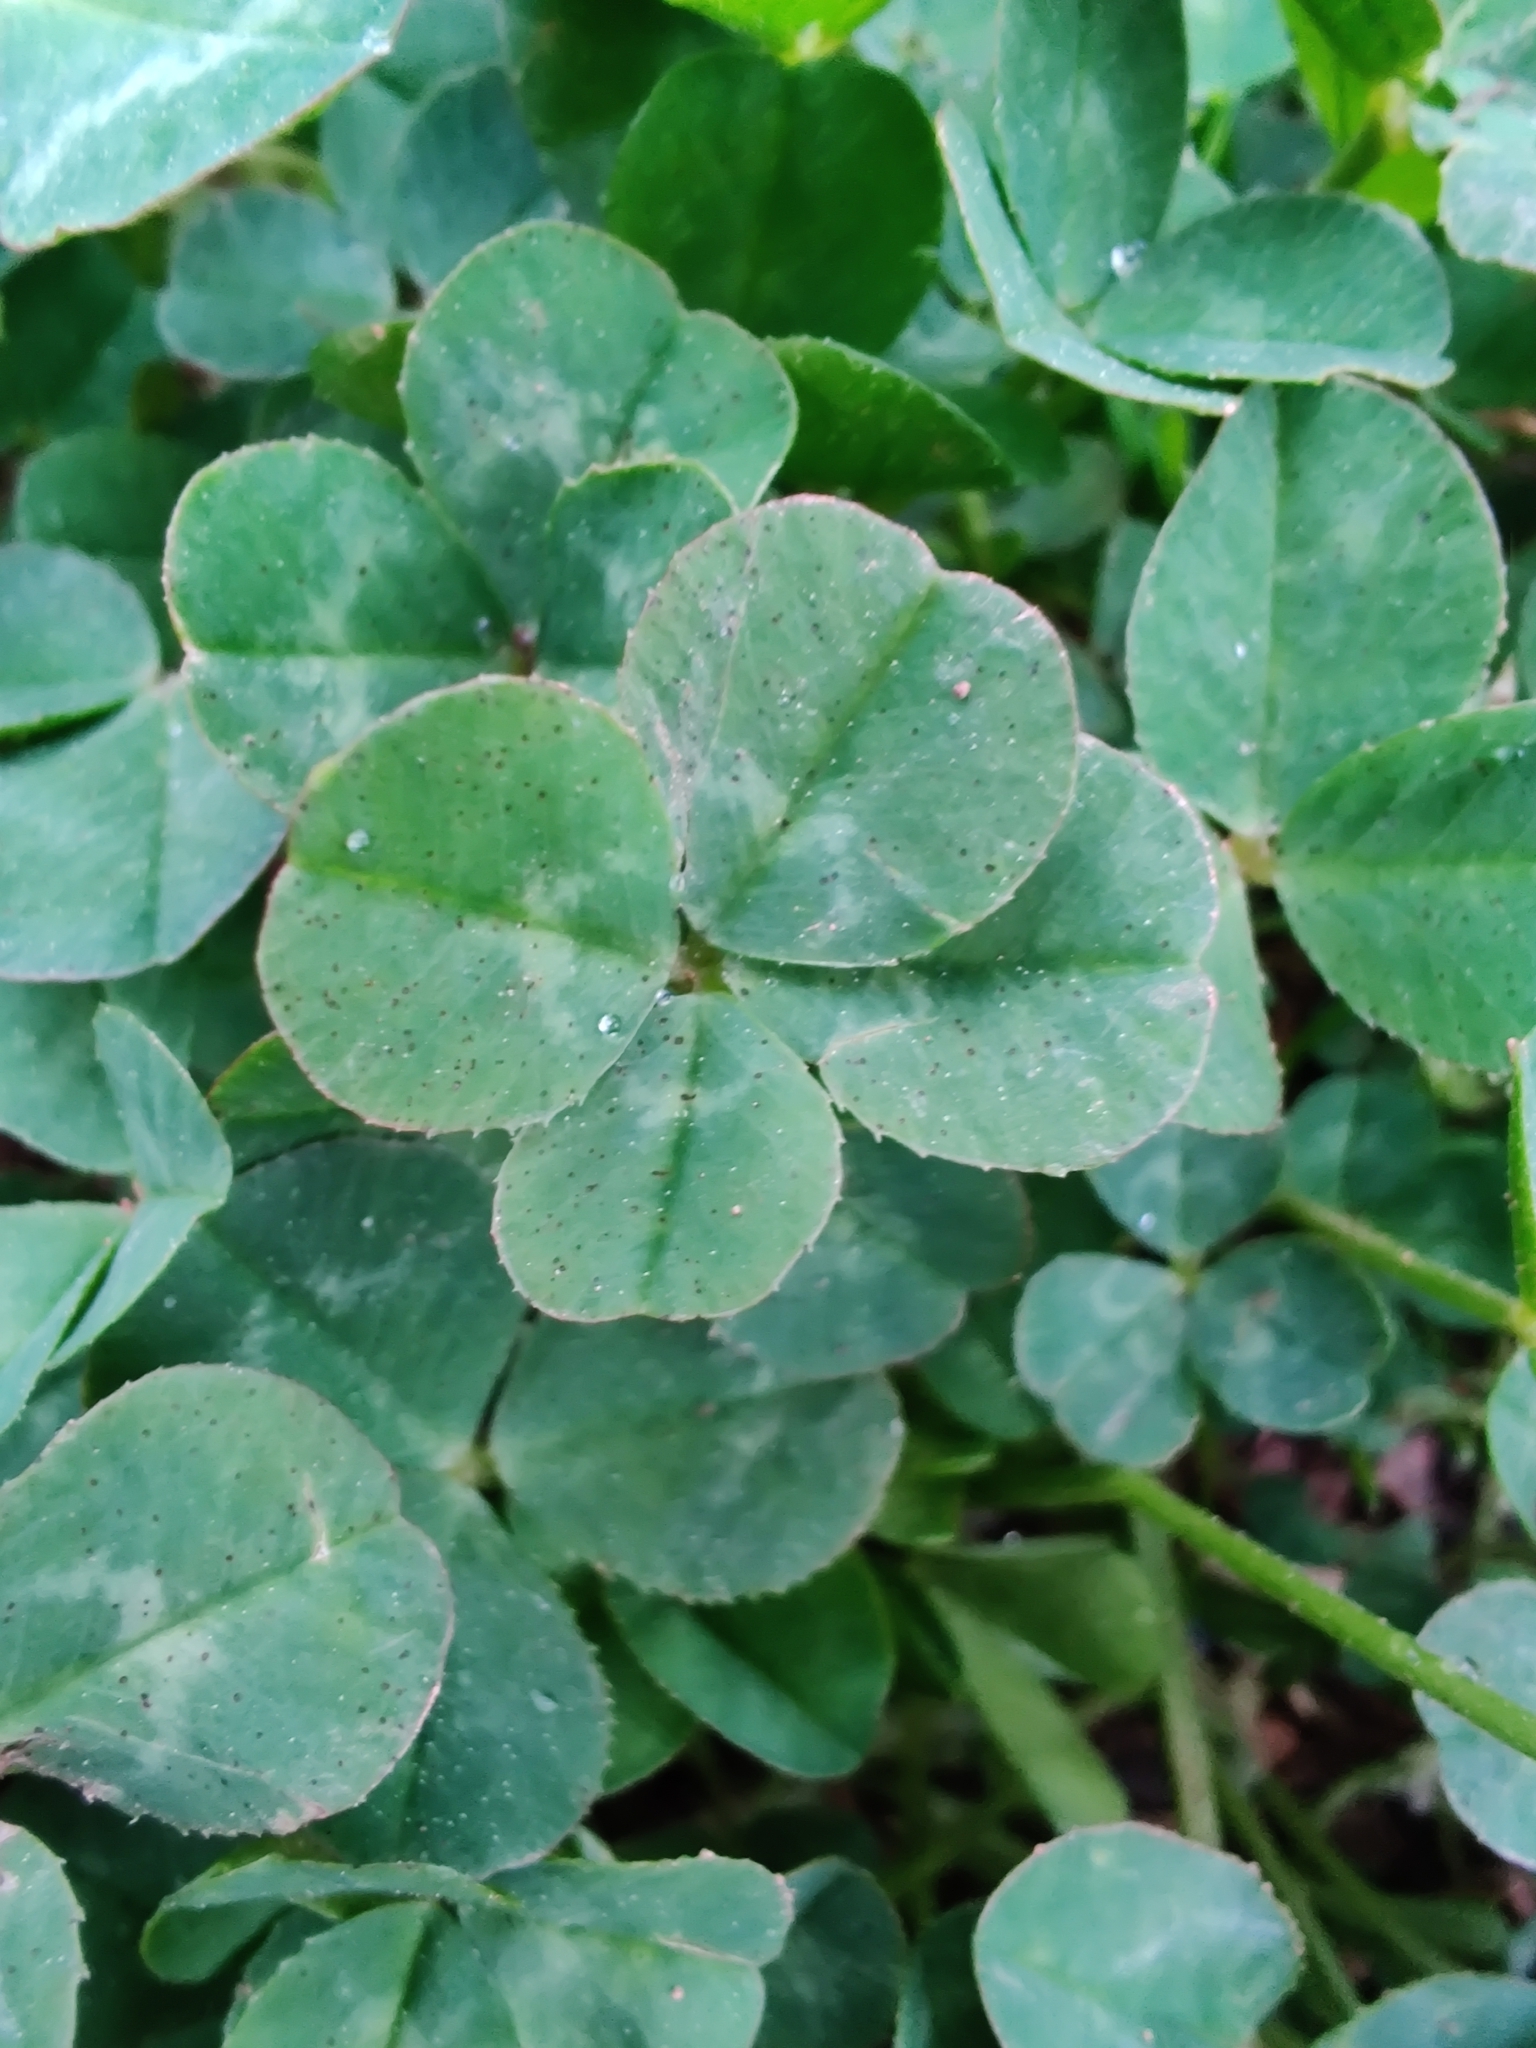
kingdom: Plantae
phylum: Tracheophyta
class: Magnoliopsida
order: Fabales
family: Fabaceae
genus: Trifolium
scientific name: Trifolium repens
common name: White clover
